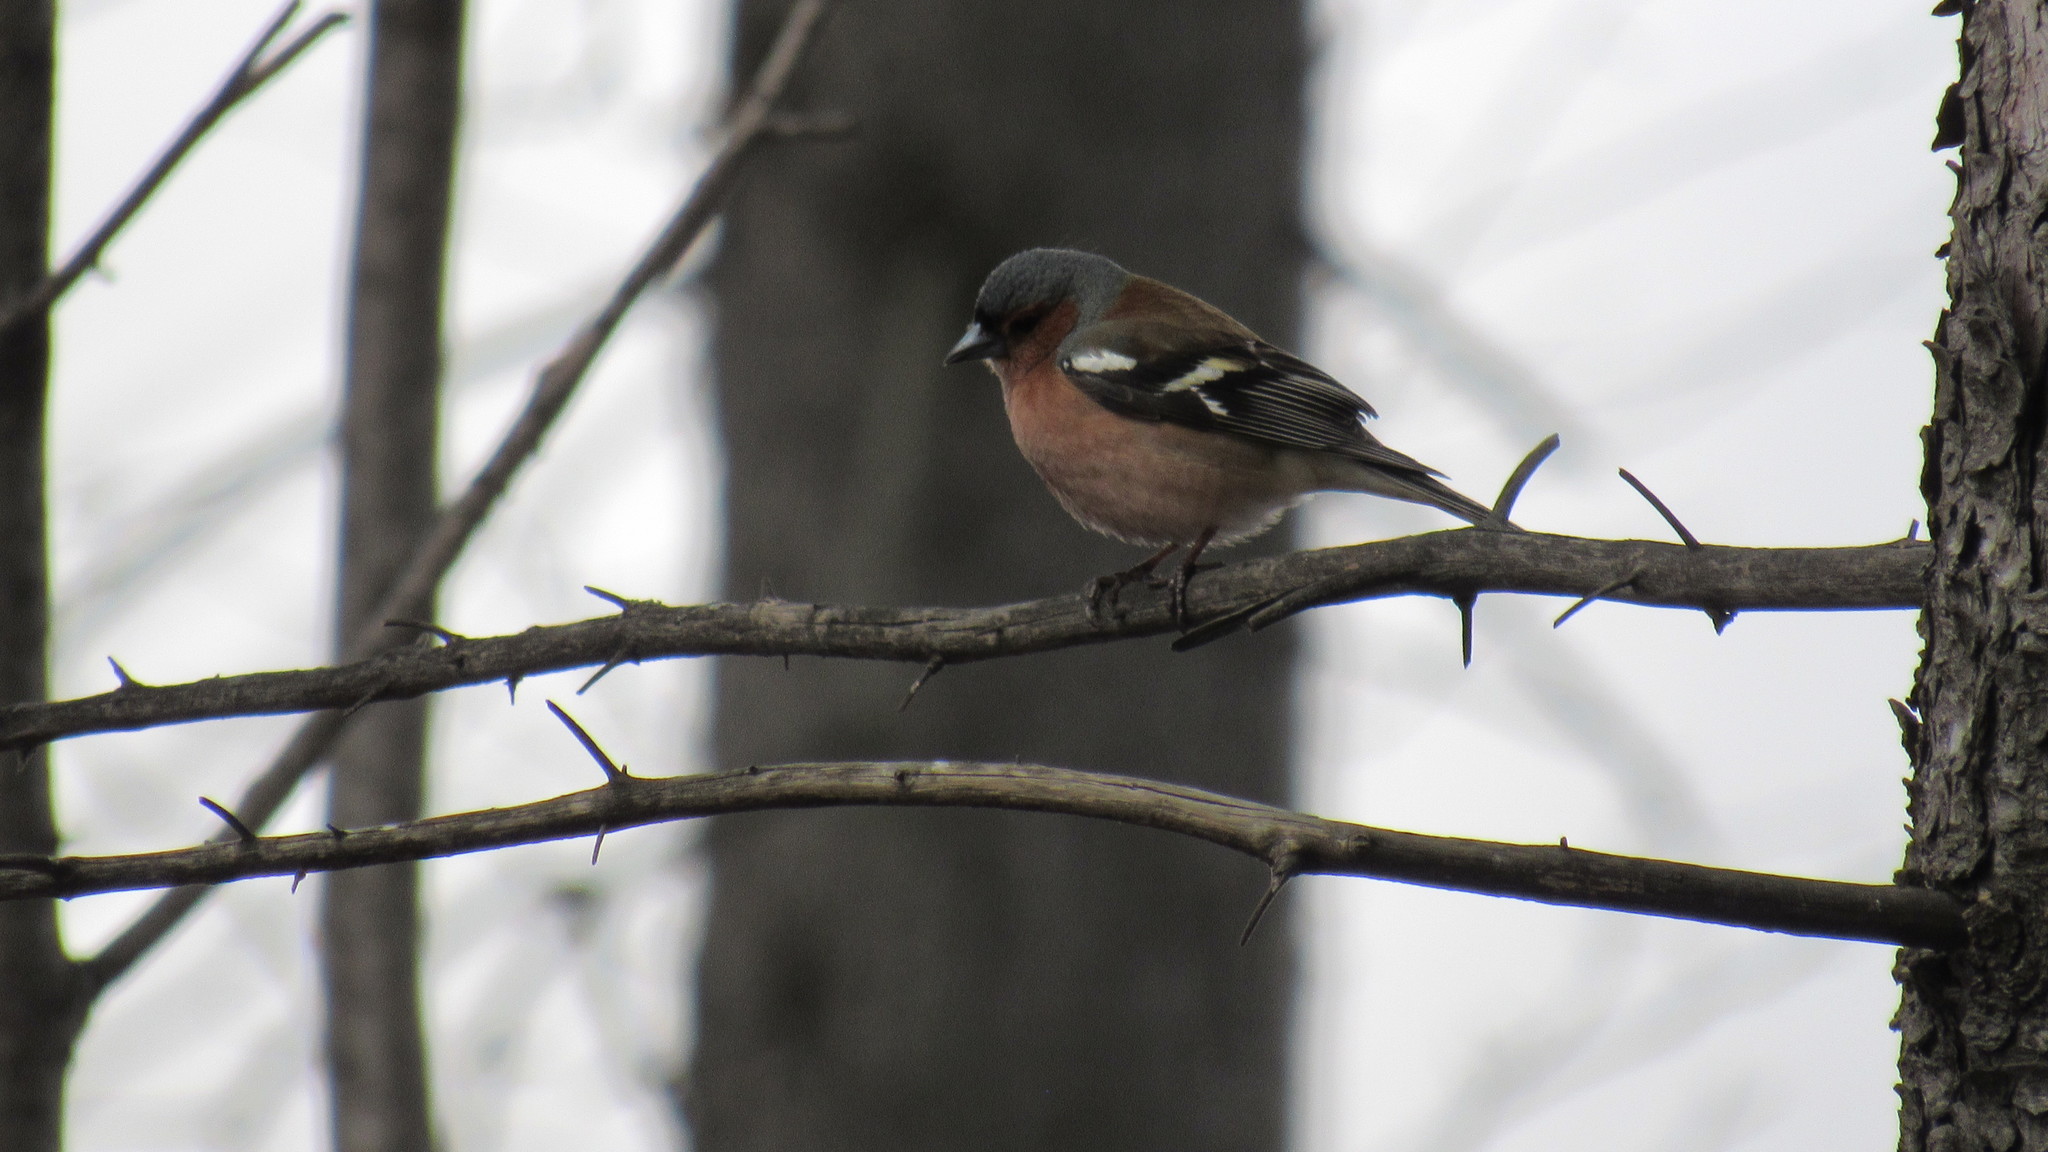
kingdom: Animalia
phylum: Chordata
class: Aves
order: Passeriformes
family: Fringillidae
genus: Fringilla
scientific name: Fringilla coelebs
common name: Common chaffinch
